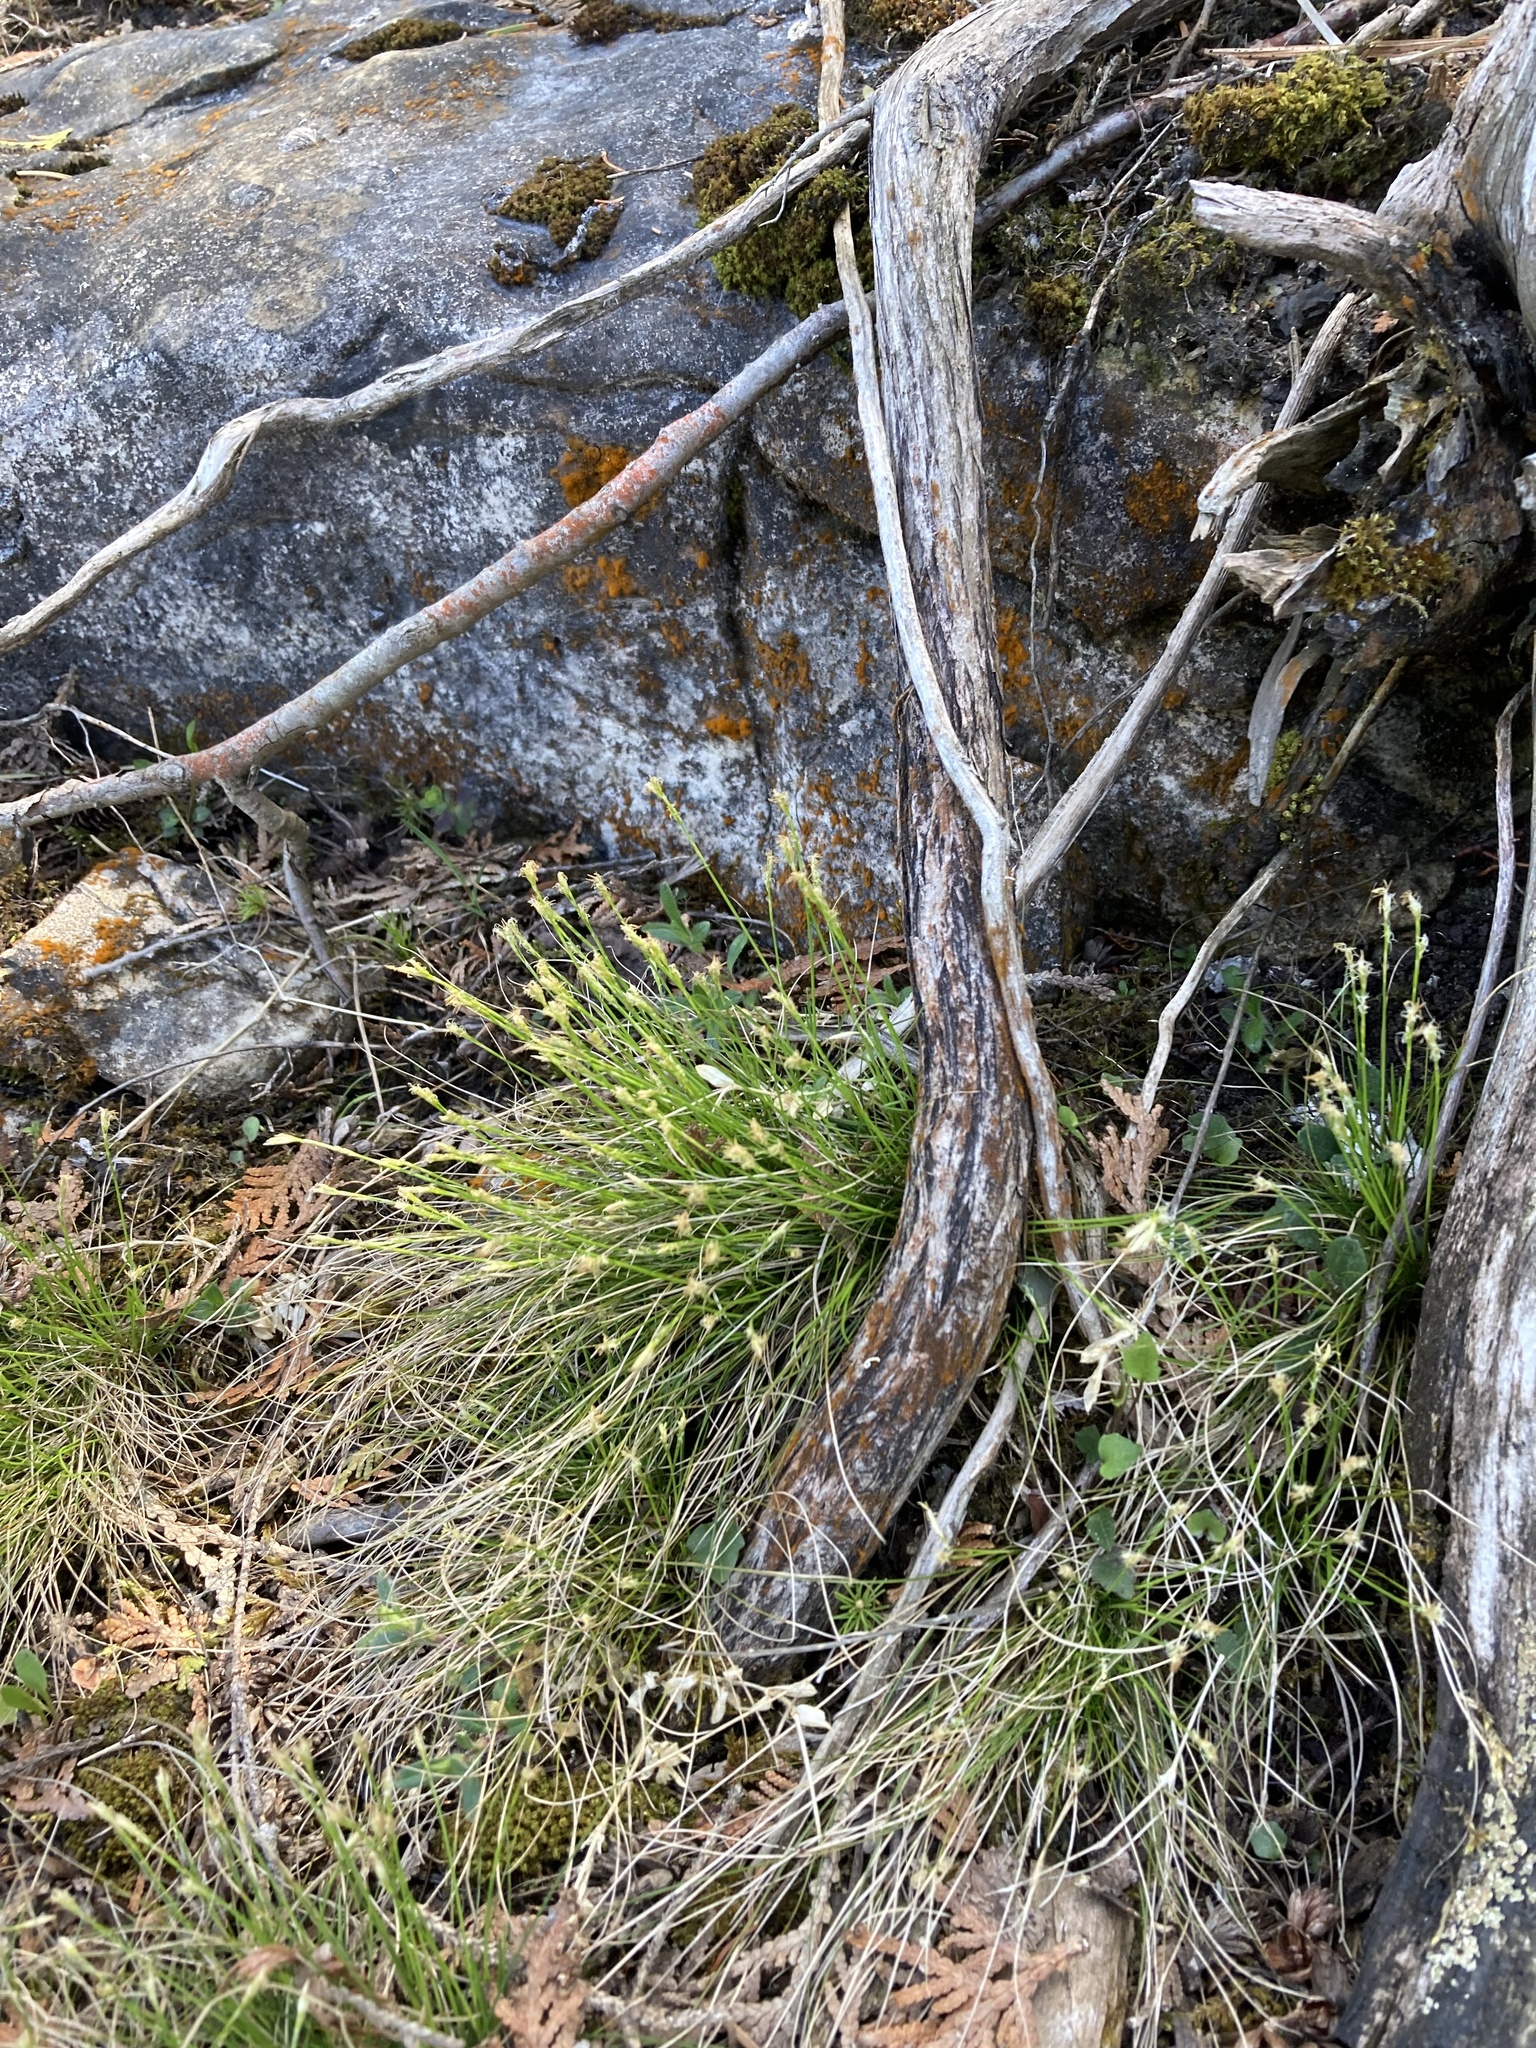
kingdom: Plantae
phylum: Tracheophyta
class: Liliopsida
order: Poales
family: Cyperaceae
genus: Carex
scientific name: Carex eburnea
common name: Bristle-leaved sedge
